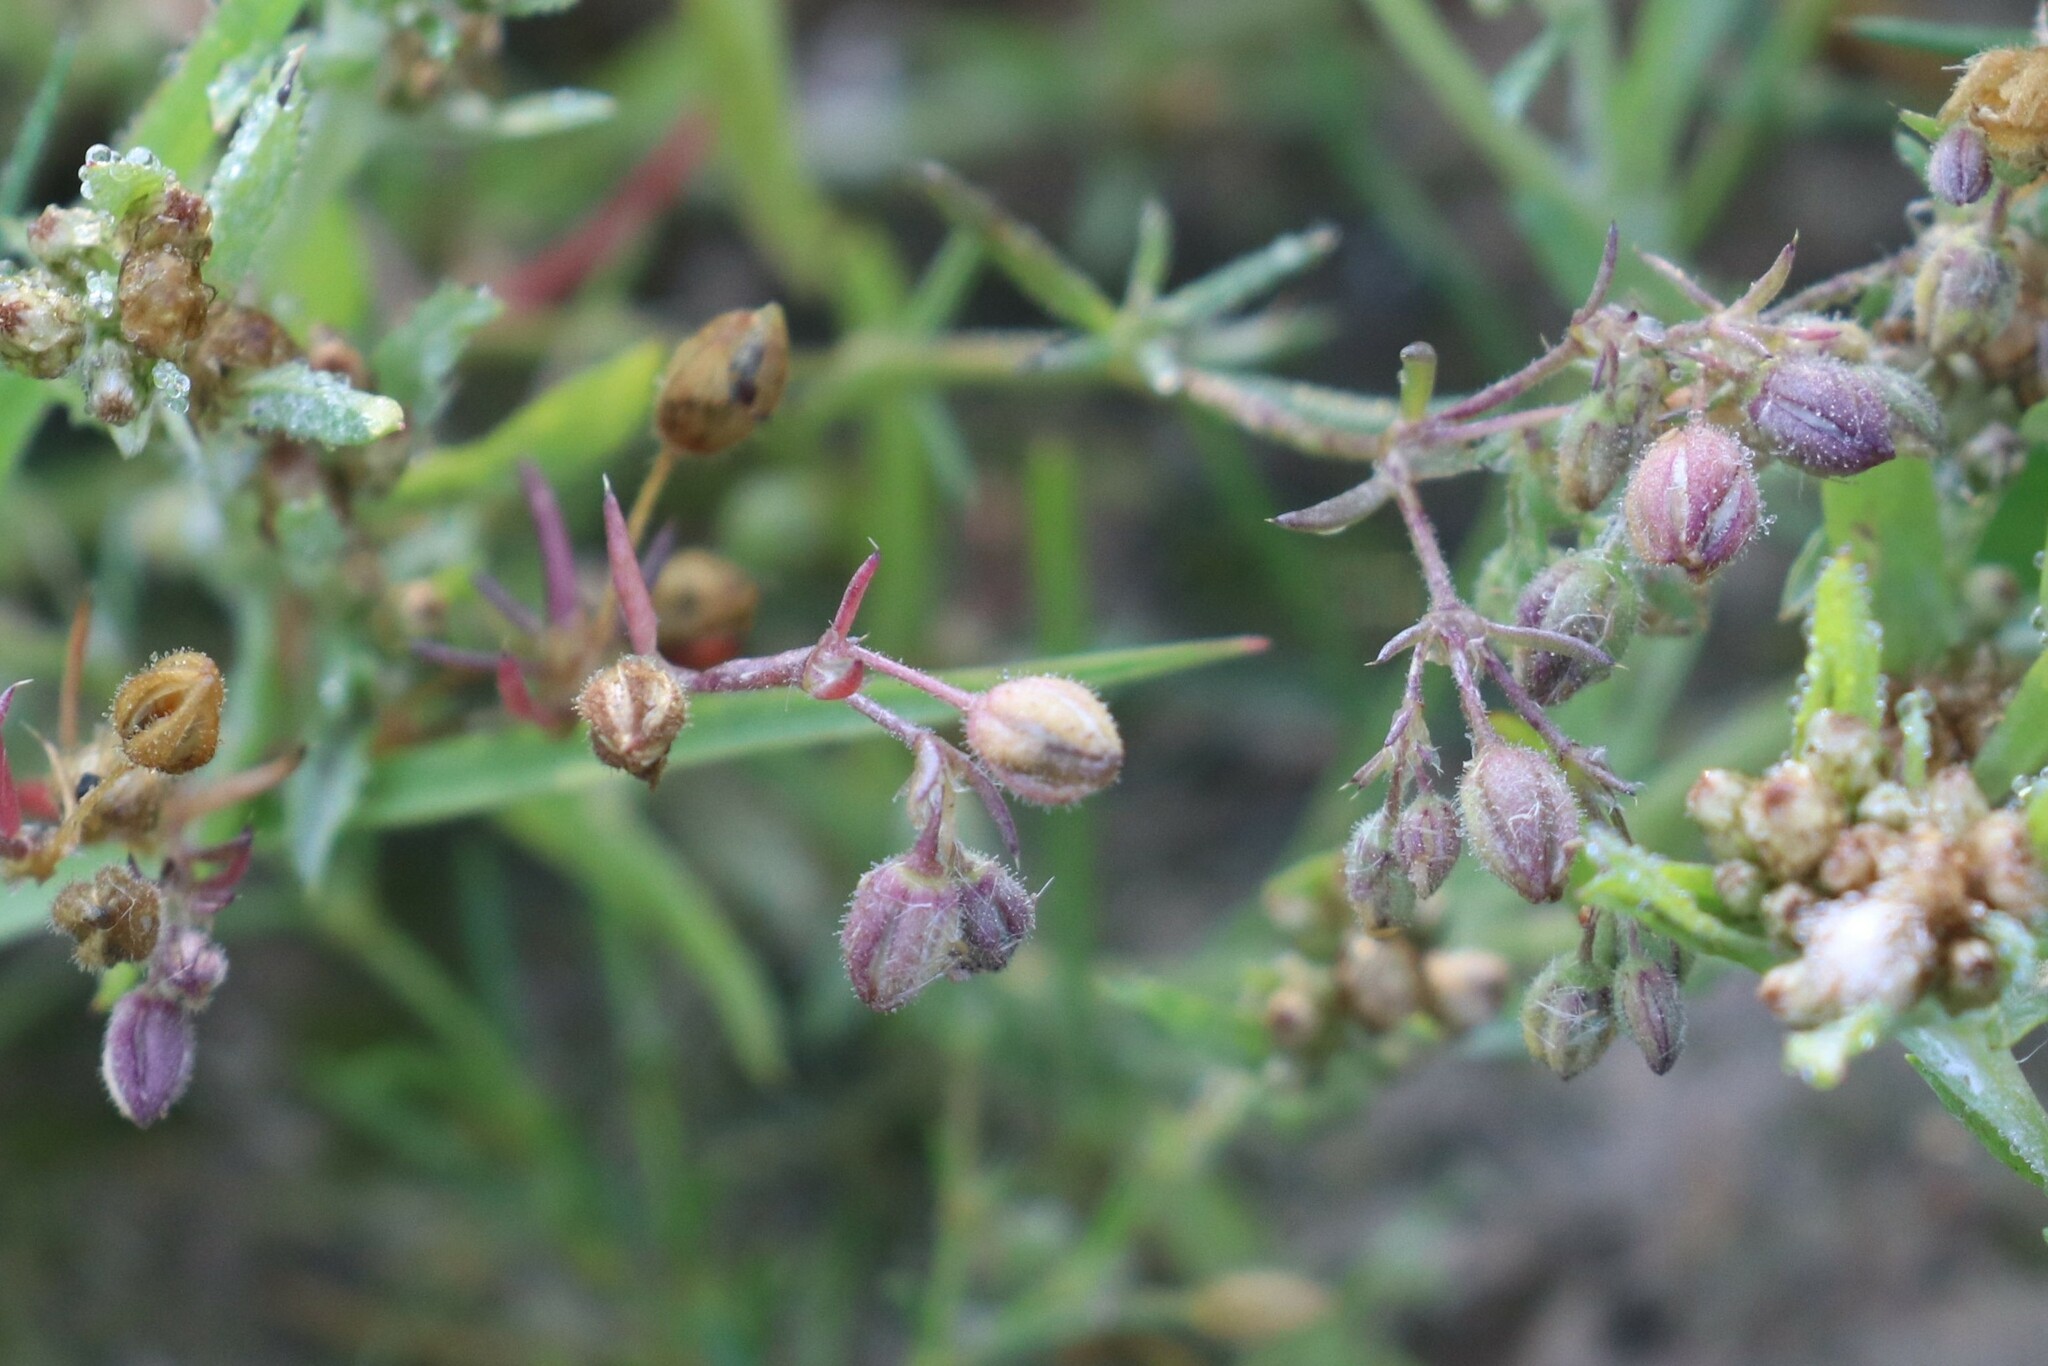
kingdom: Plantae
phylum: Tracheophyta
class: Magnoliopsida
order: Caryophyllales
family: Caryophyllaceae
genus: Spergularia
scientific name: Spergularia rubra
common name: Red sand-spurrey
